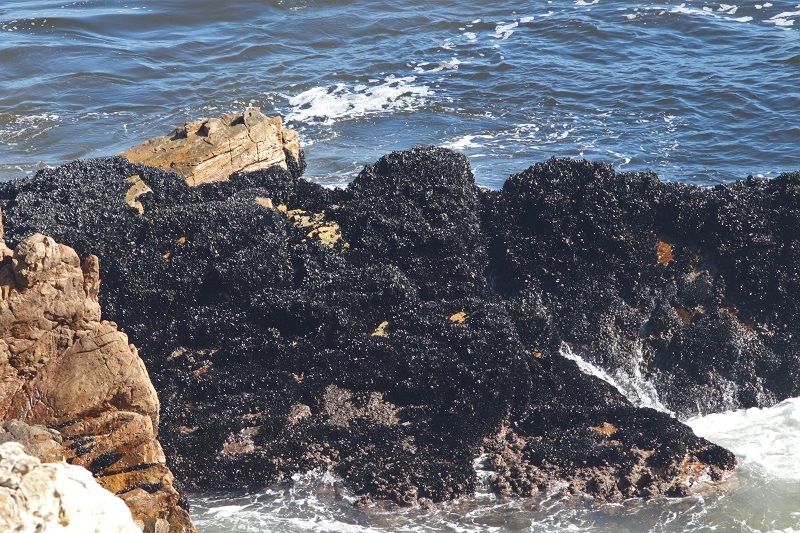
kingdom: Animalia
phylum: Mollusca
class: Bivalvia
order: Mytilida
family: Mytilidae
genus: Mytilus
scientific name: Mytilus galloprovincialis
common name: Mediterranean mussel
